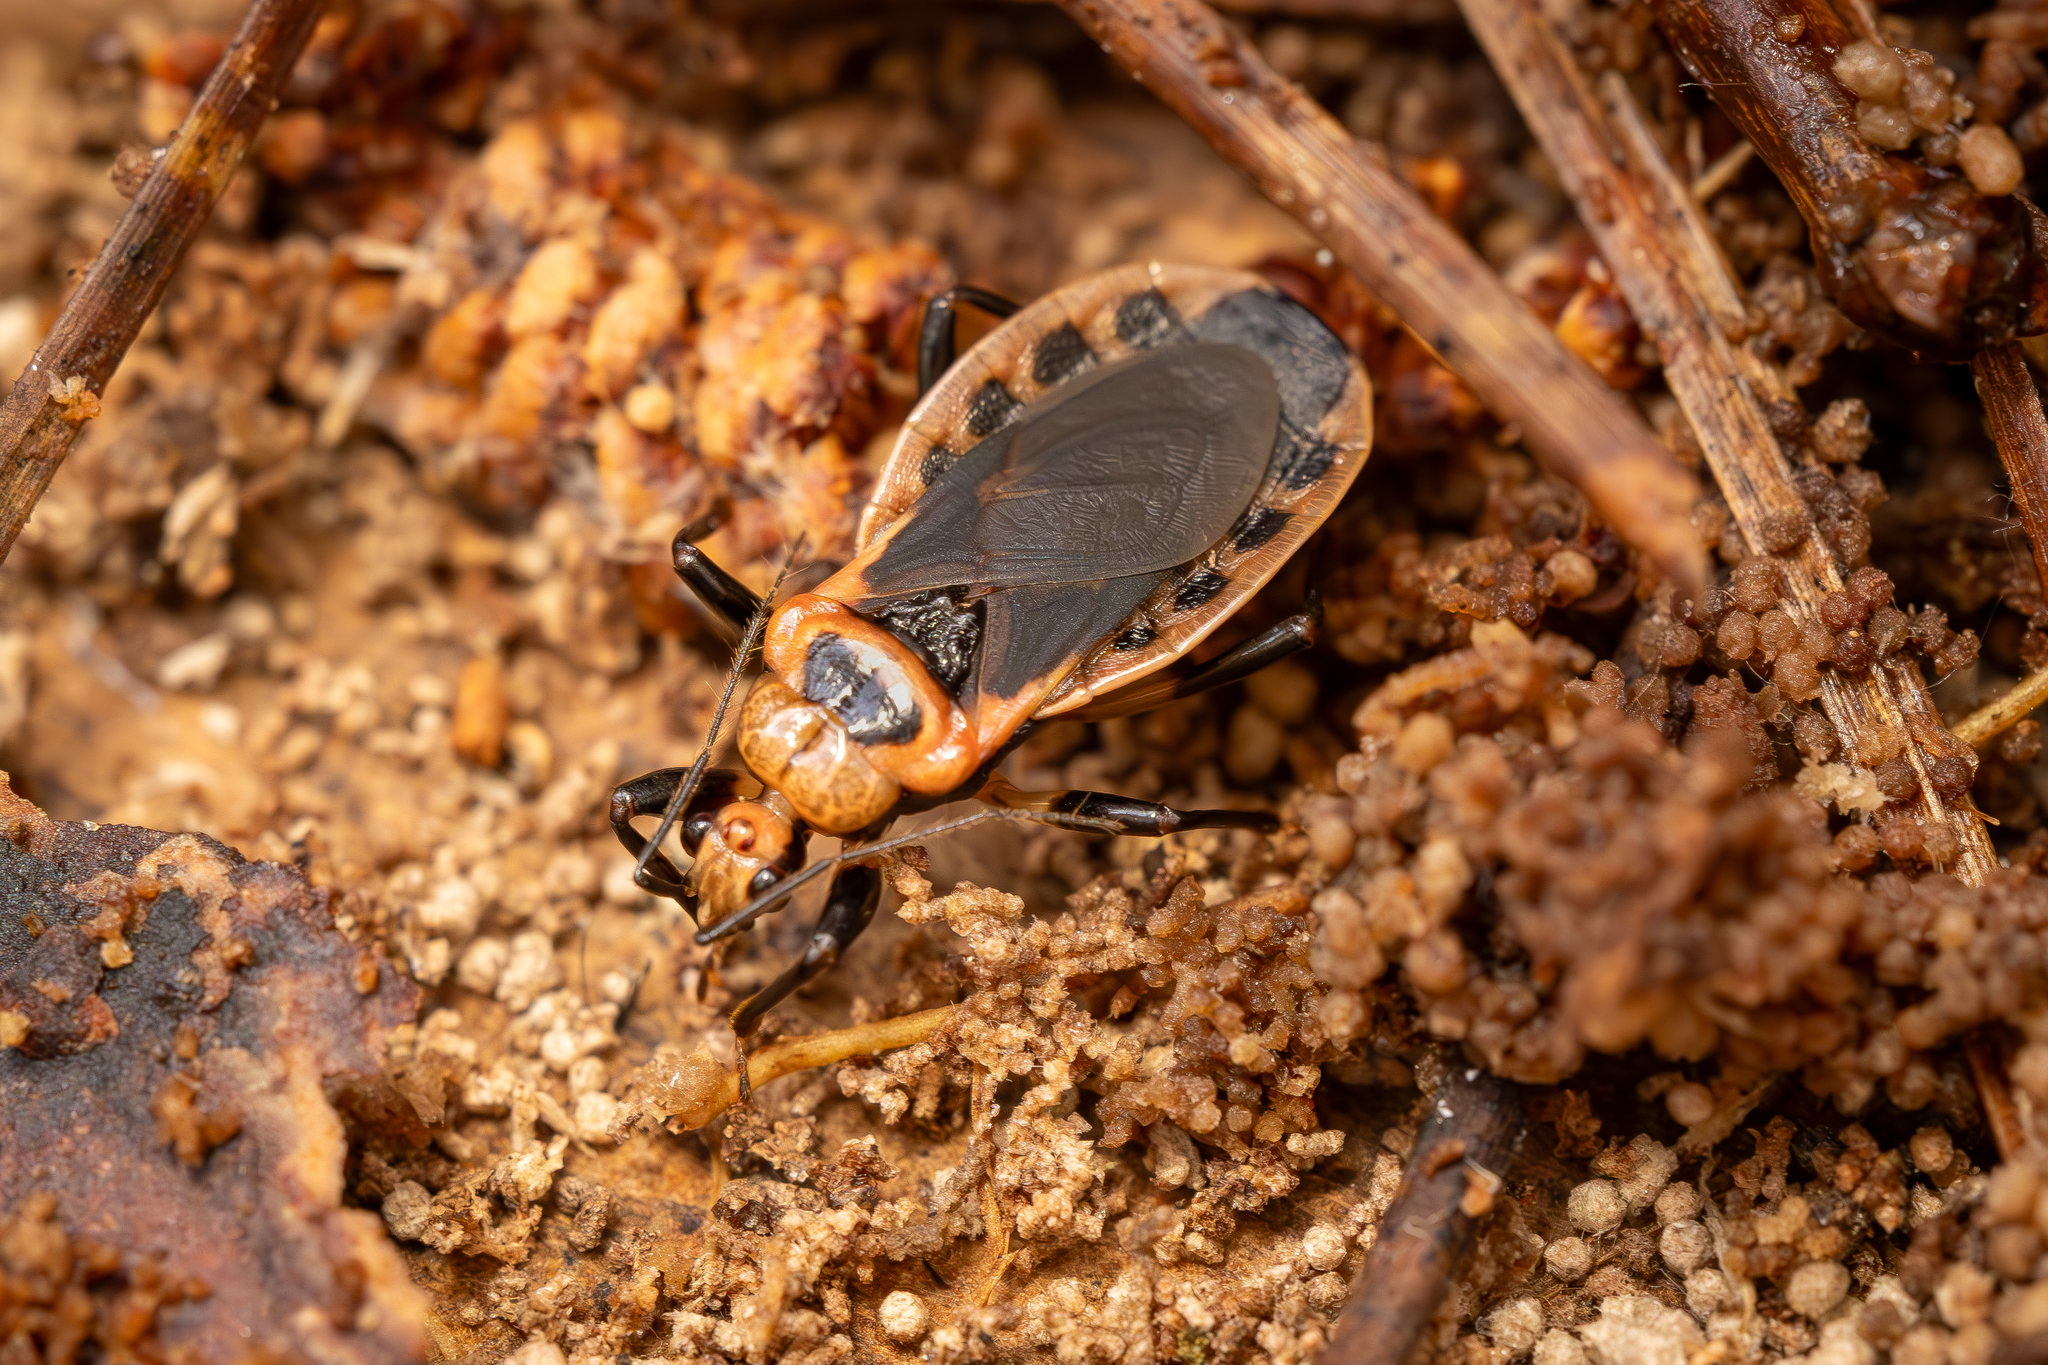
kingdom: Animalia
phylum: Arthropoda
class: Insecta
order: Hemiptera
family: Reduviidae
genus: Rhiginia
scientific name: Rhiginia cruciata
